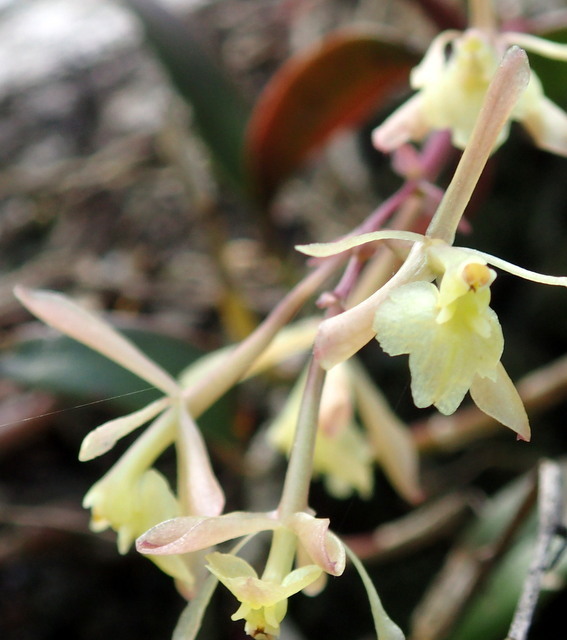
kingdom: Plantae
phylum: Tracheophyta
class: Liliopsida
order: Asparagales
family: Orchidaceae
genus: Epidendrum
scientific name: Epidendrum conopseum
